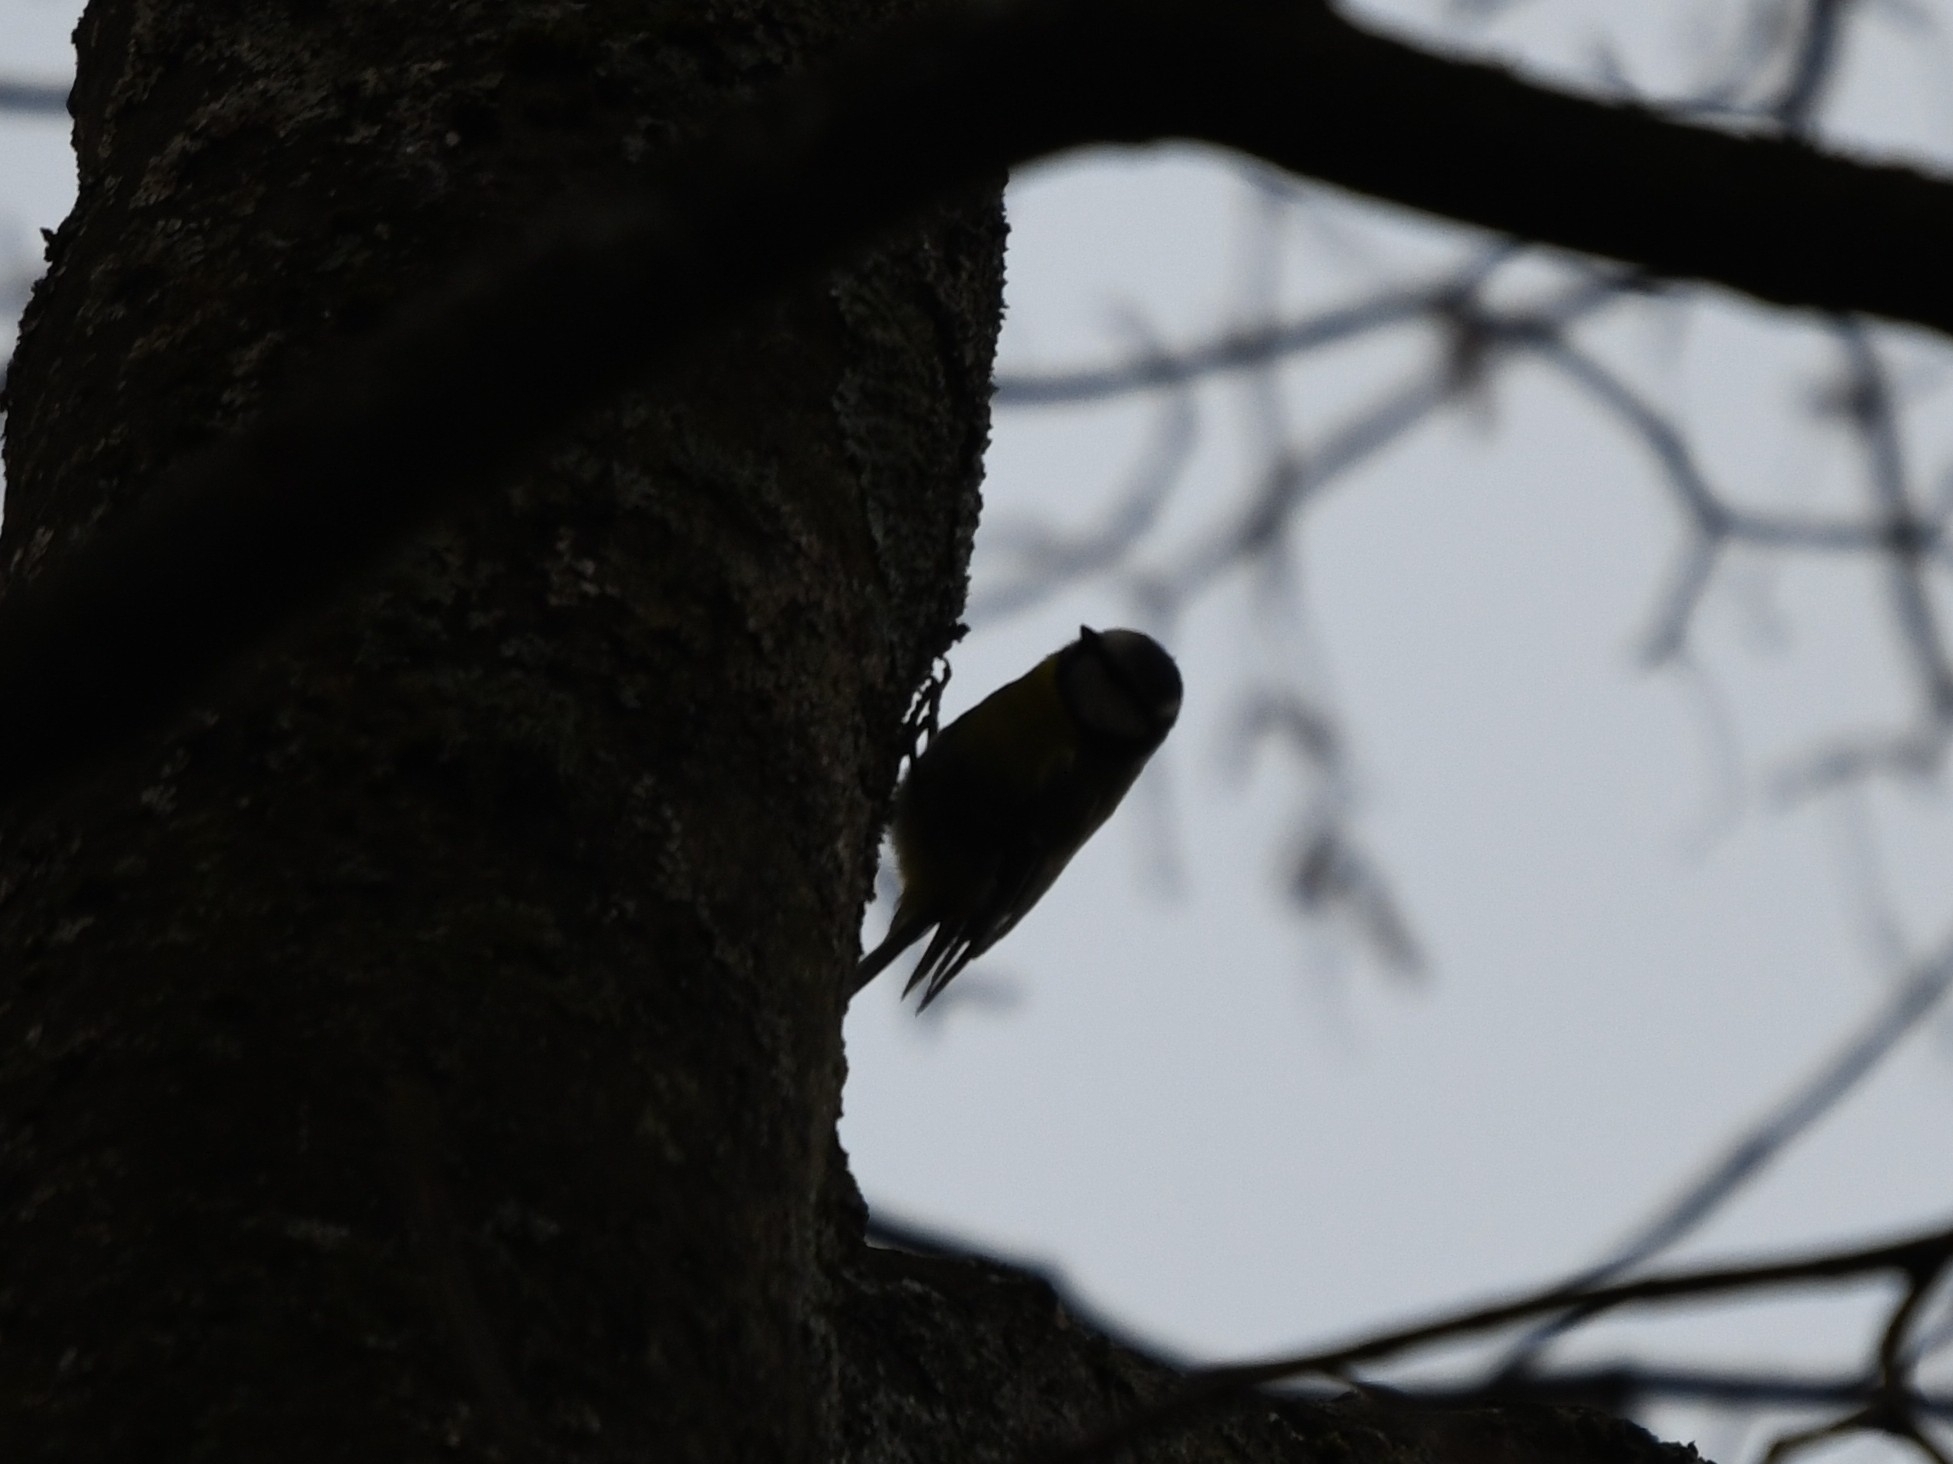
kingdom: Animalia
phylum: Chordata
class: Aves
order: Passeriformes
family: Paridae
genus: Cyanistes
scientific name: Cyanistes caeruleus
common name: Eurasian blue tit
